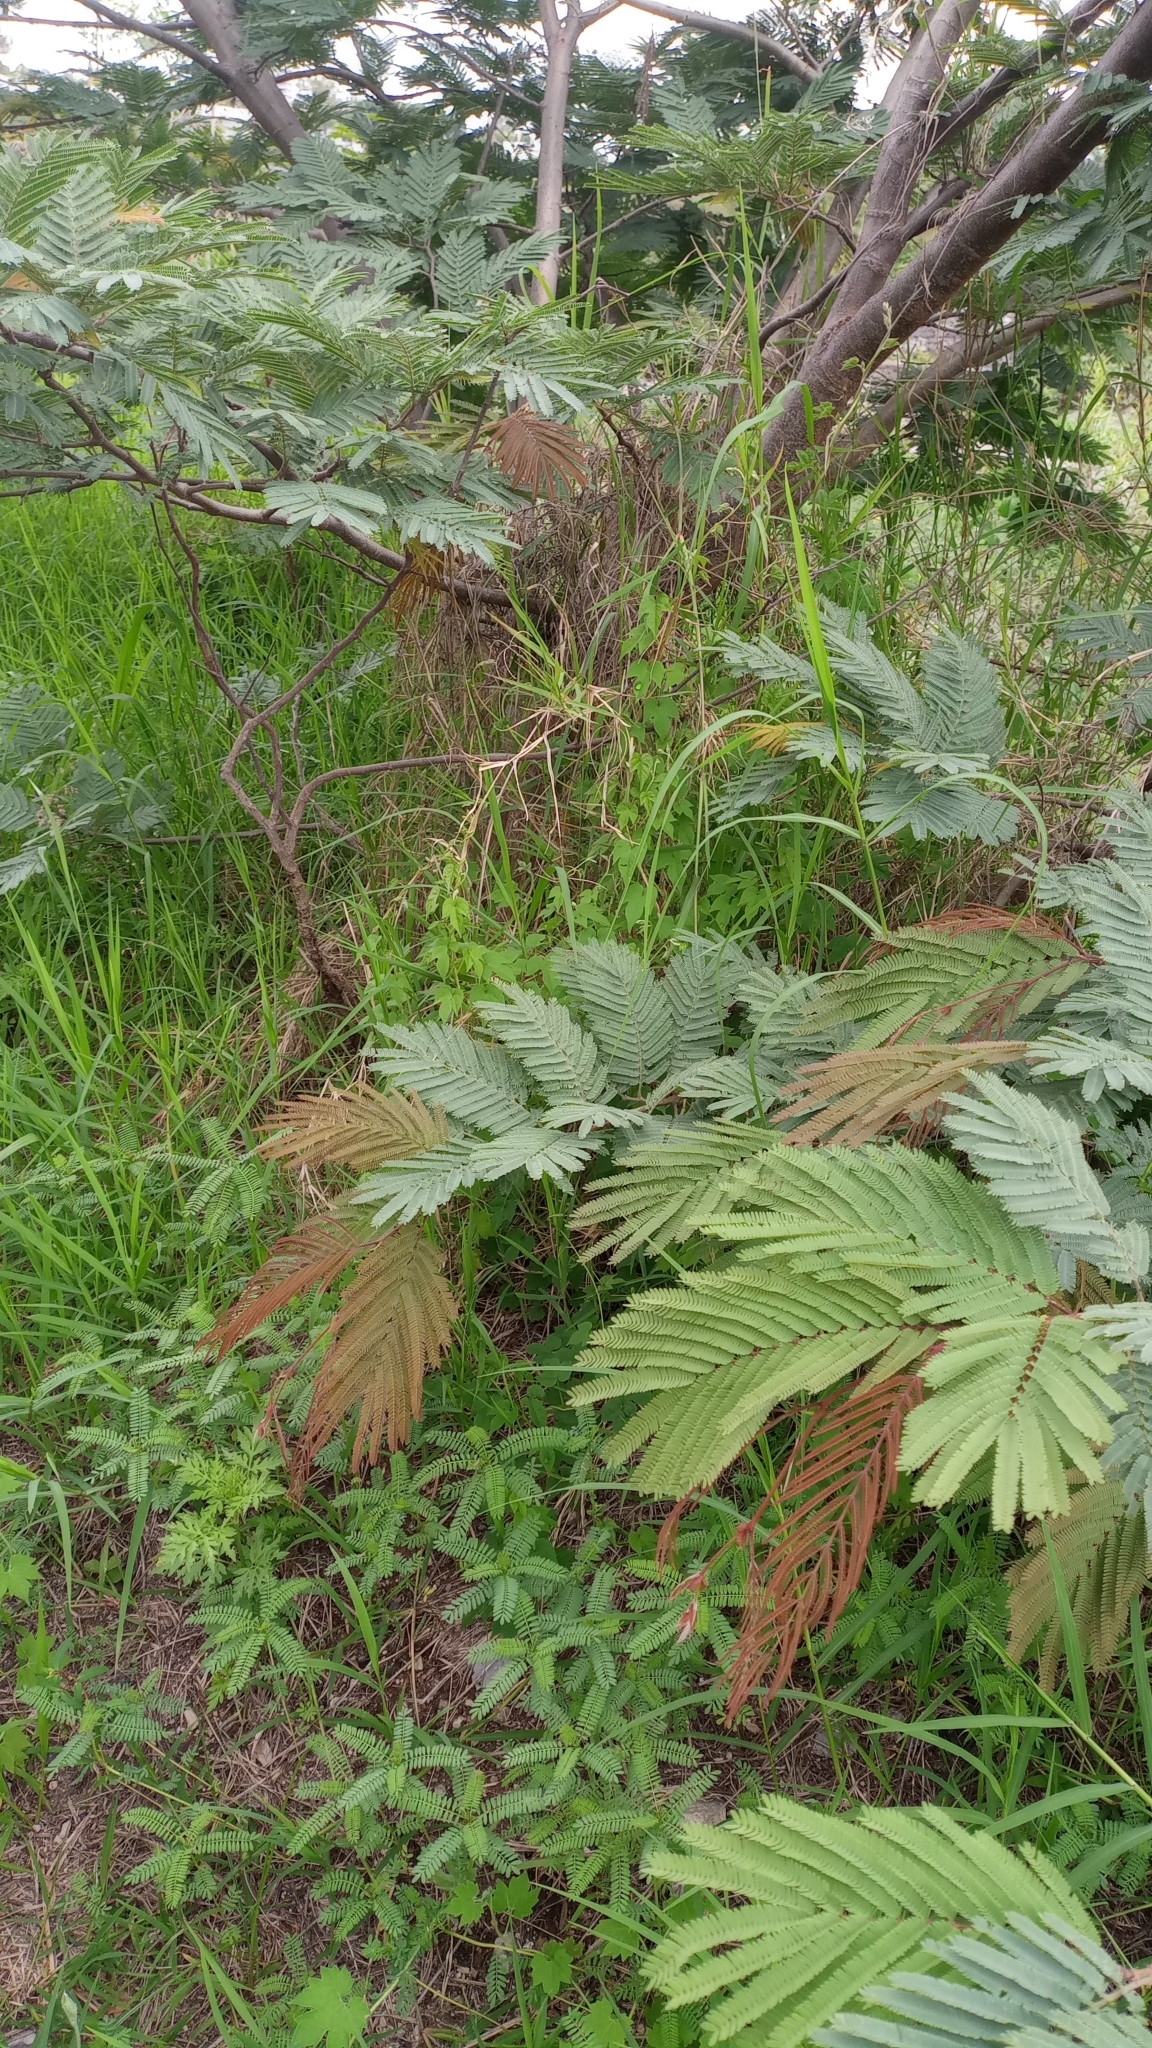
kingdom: Plantae
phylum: Tracheophyta
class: Magnoliopsida
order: Fabales
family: Fabaceae
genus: Lysiloma
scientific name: Lysiloma acapulcense
